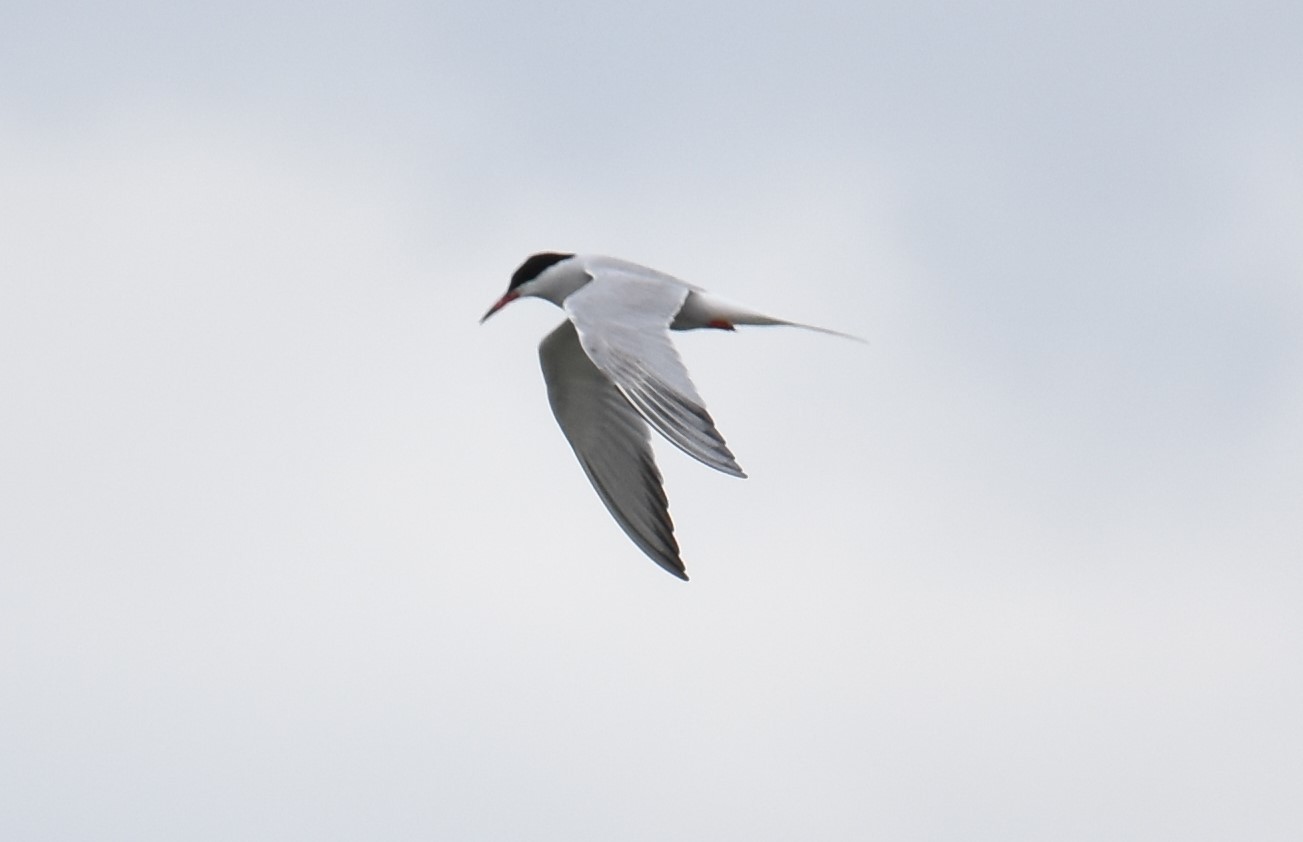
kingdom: Animalia
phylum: Chordata
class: Aves
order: Charadriiformes
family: Laridae
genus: Sterna
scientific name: Sterna hirundo
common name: Common tern
